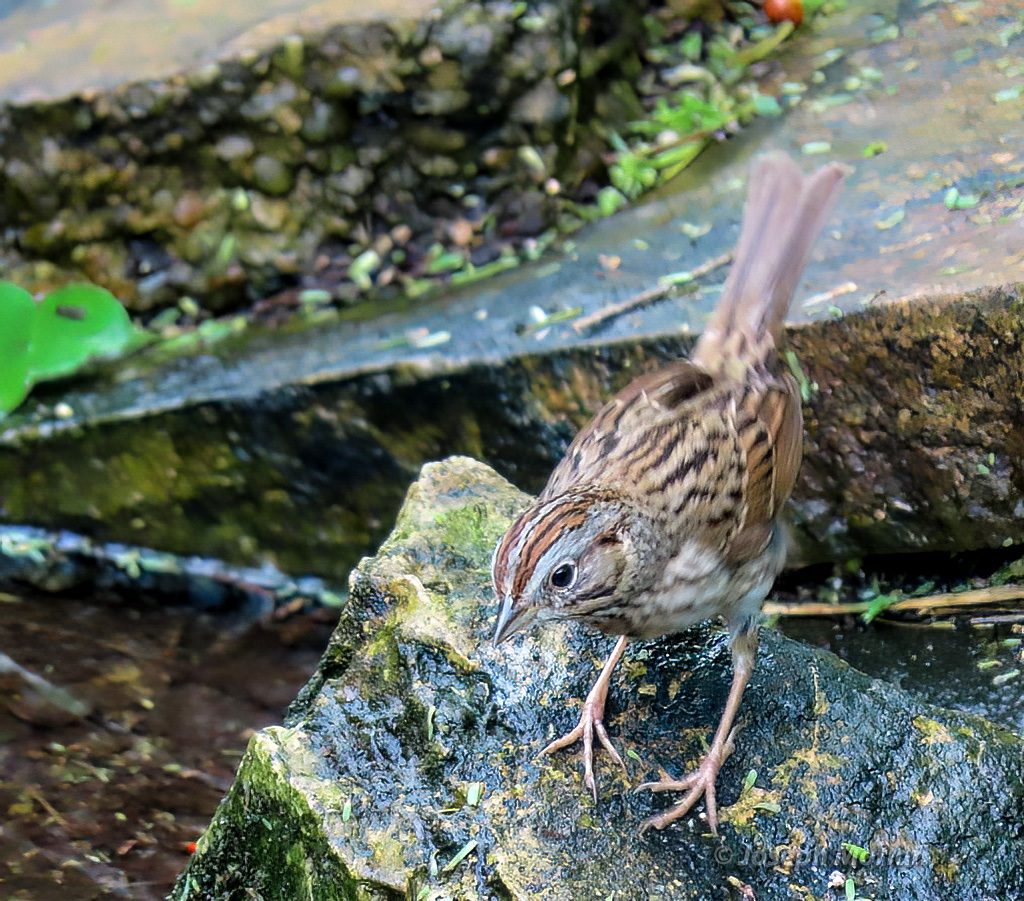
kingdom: Animalia
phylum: Chordata
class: Aves
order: Passeriformes
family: Passerellidae
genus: Melospiza
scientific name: Melospiza lincolnii
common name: Lincoln's sparrow
